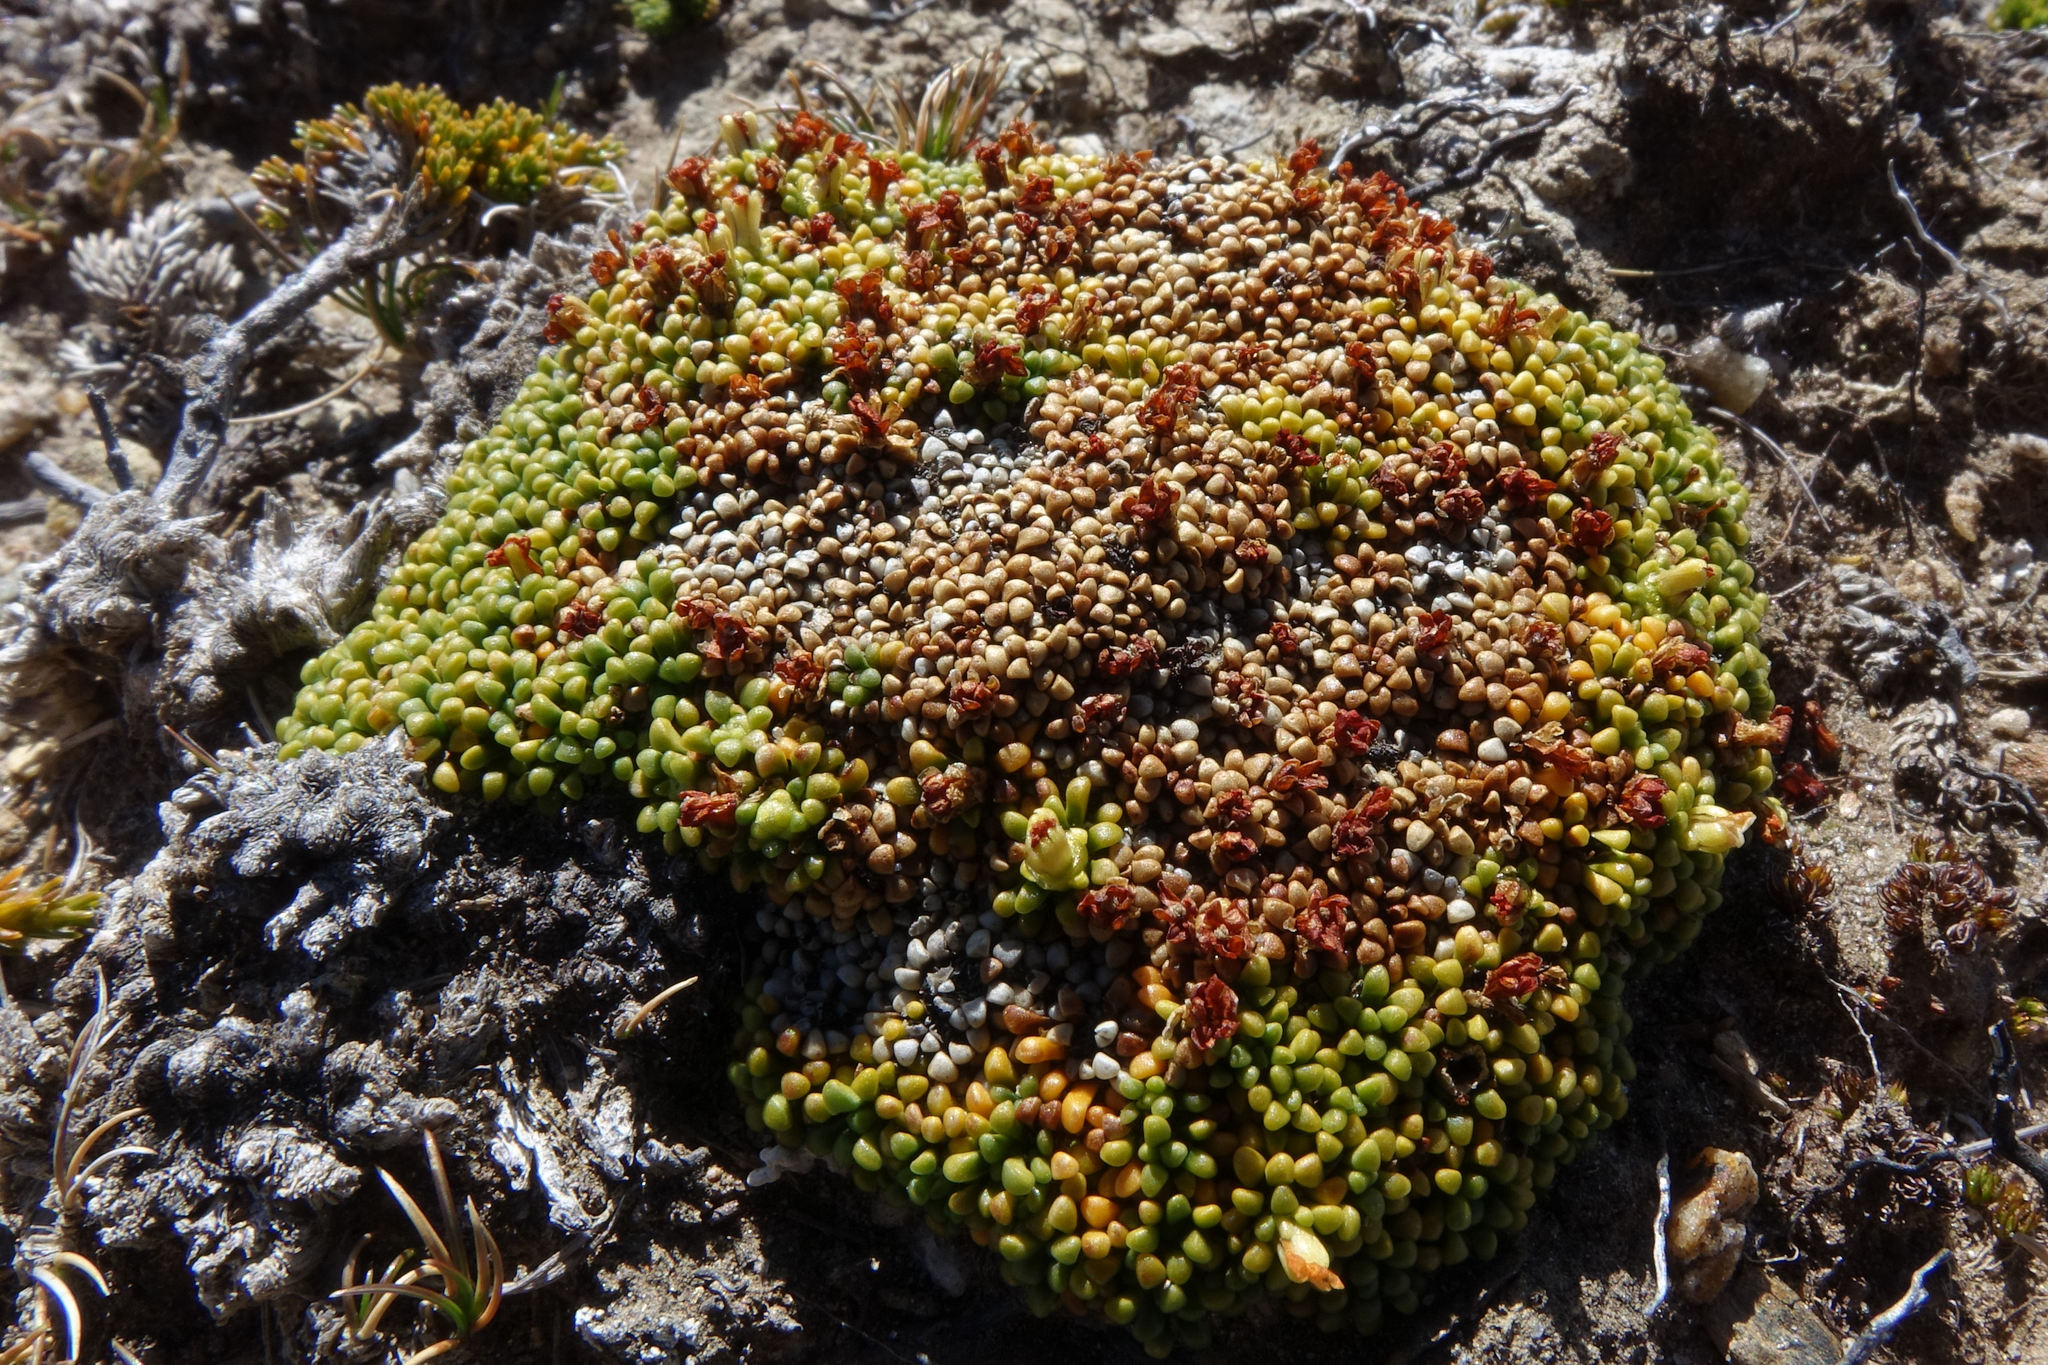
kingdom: Plantae
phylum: Tracheophyta
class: Magnoliopsida
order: Asterales
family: Stylidiaceae
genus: Phyllachne
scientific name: Phyllachne rubra
